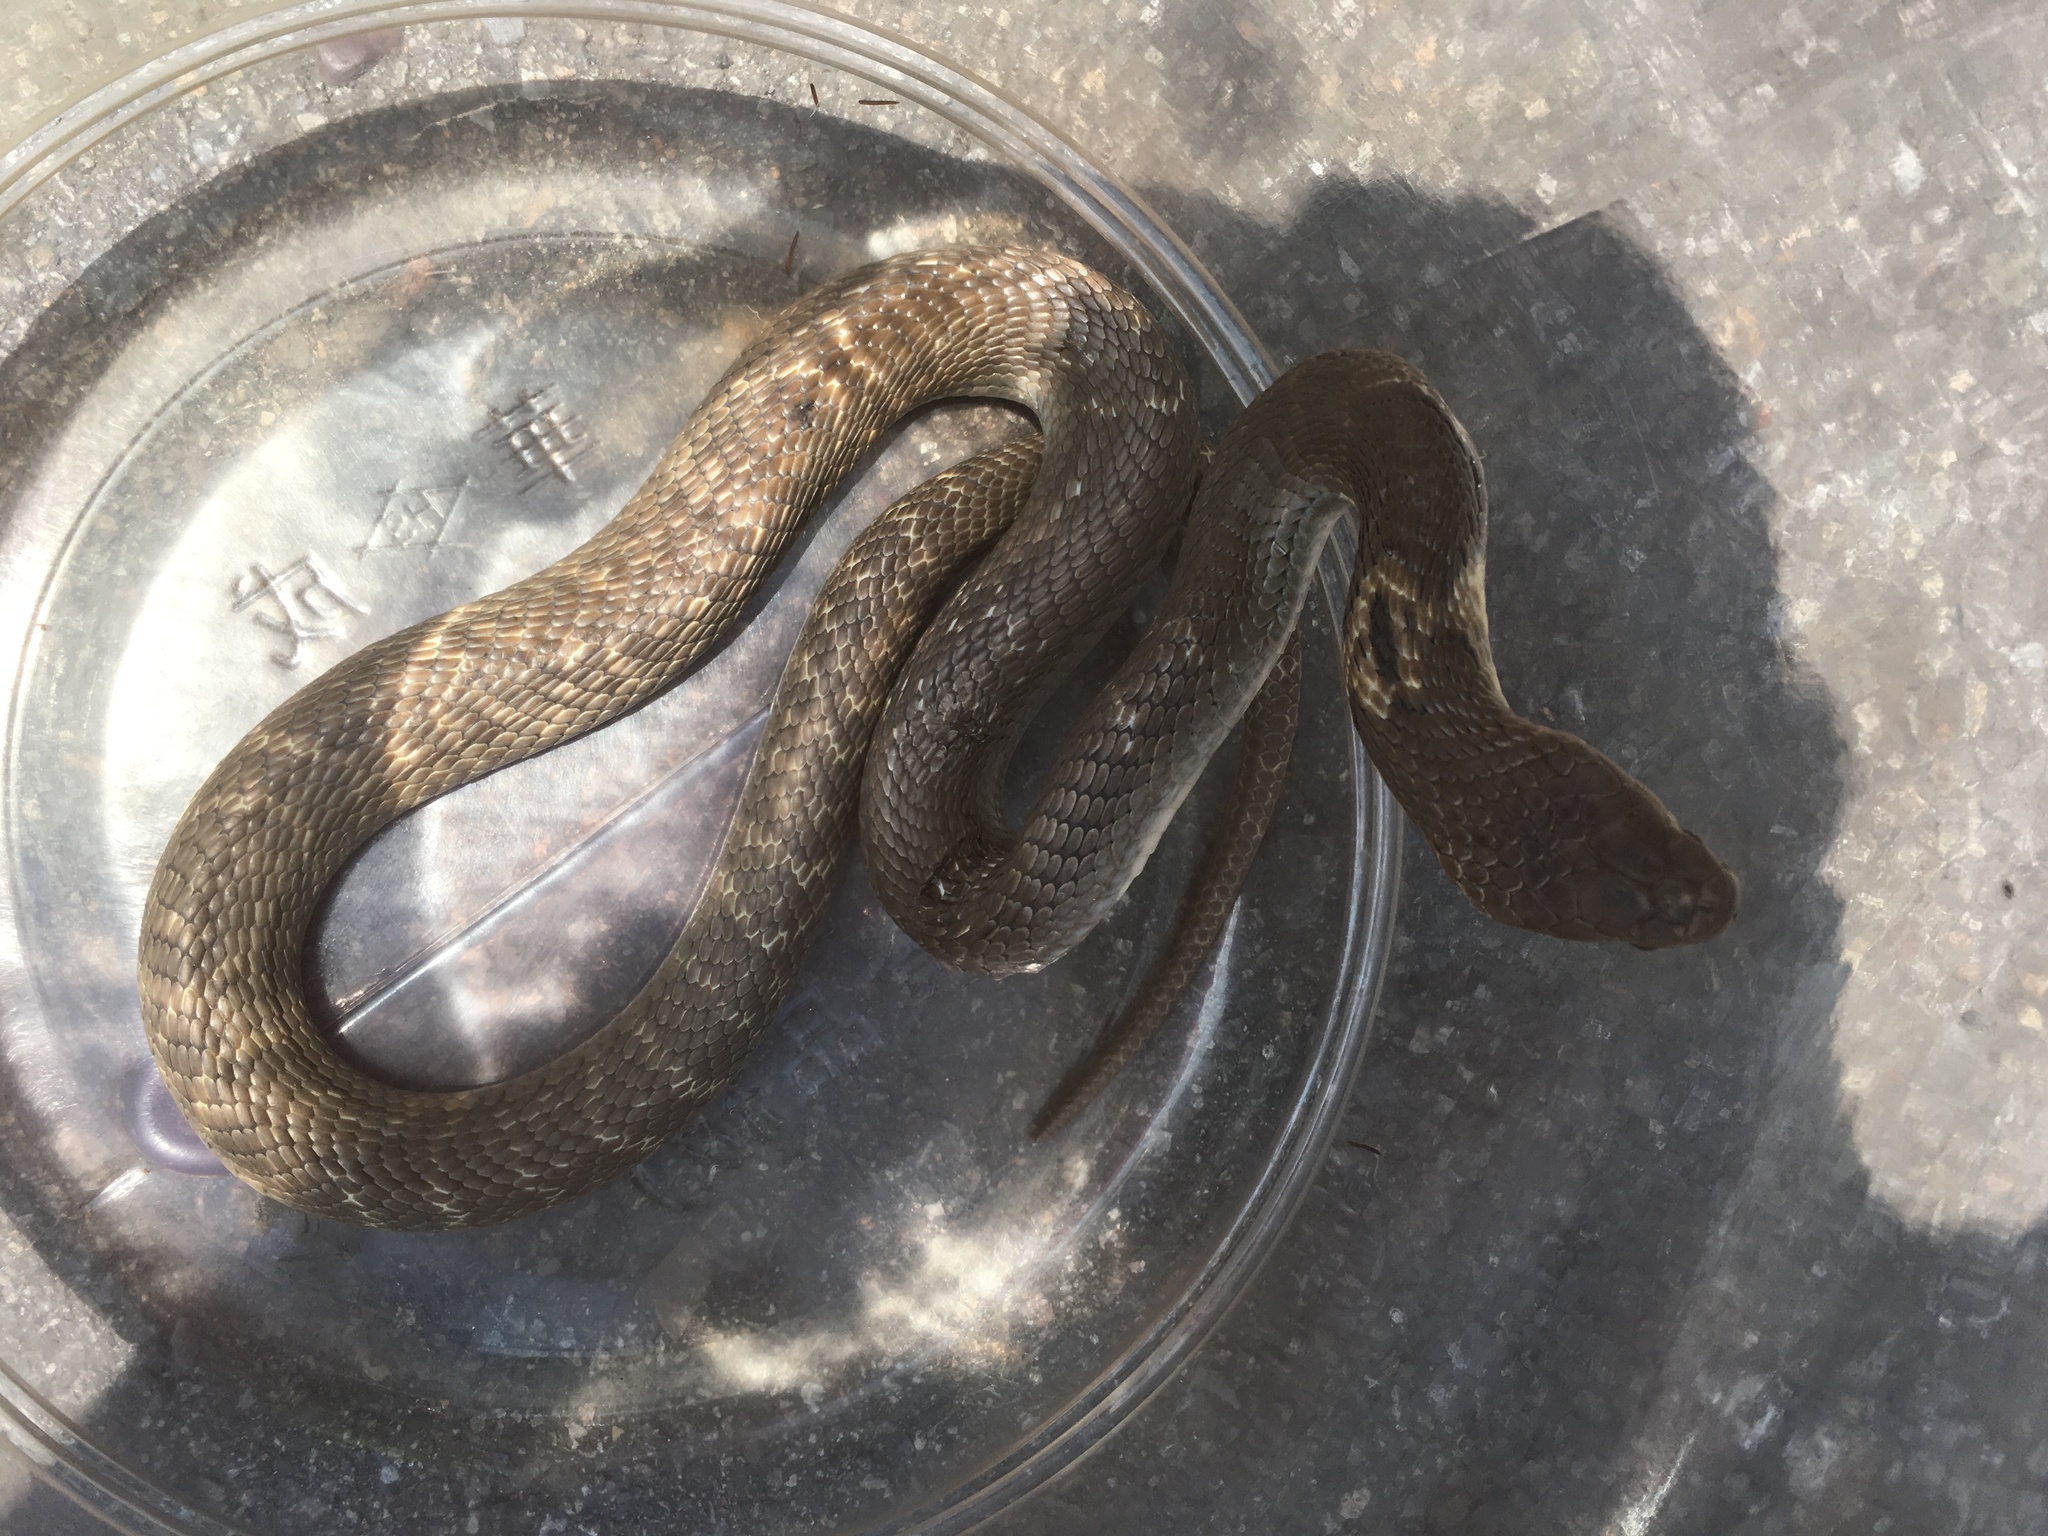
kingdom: Animalia
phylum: Chordata
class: Squamata
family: Elapidae
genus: Naja
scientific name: Naja atra
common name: Chinese cobra
